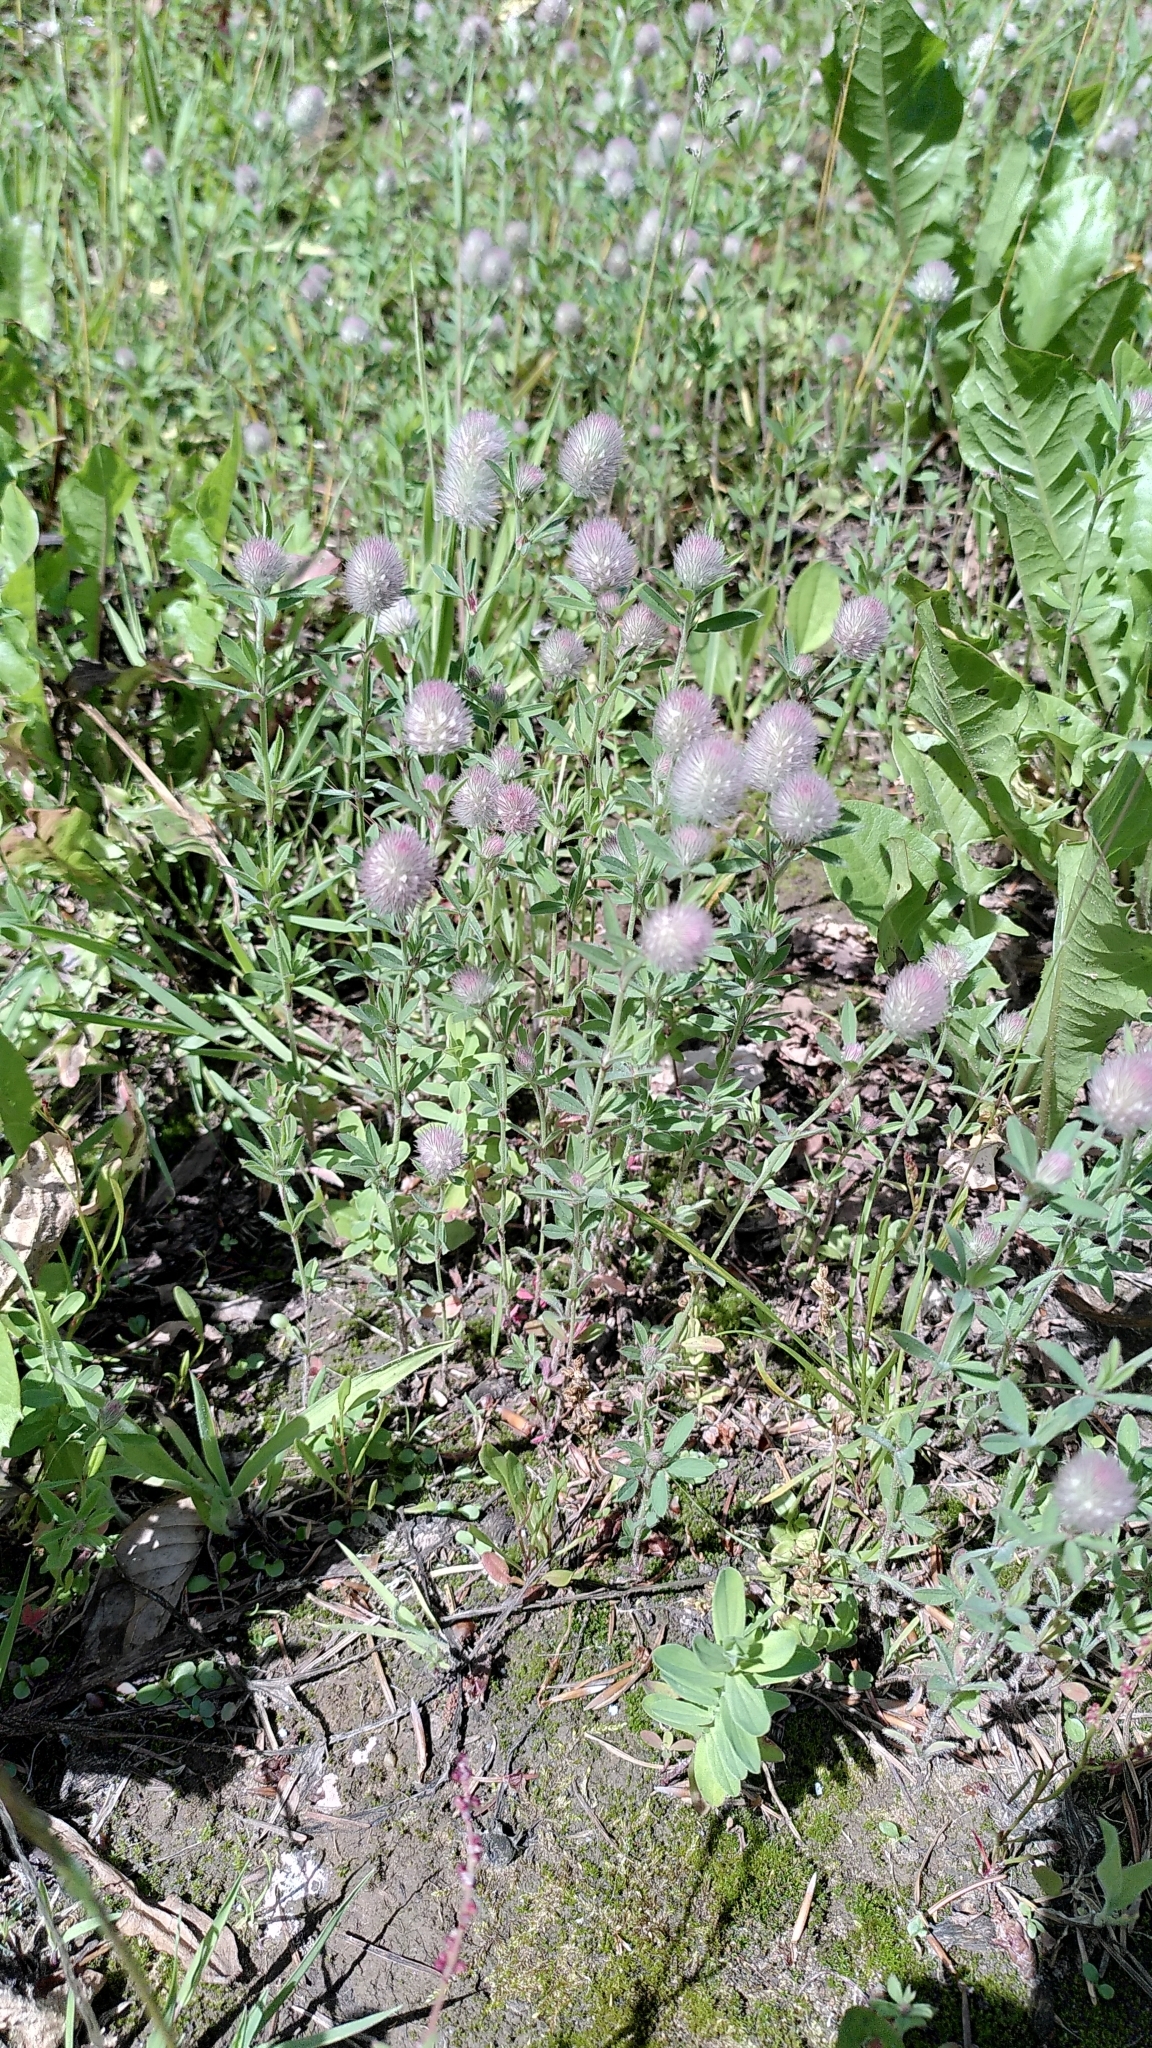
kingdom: Plantae
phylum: Tracheophyta
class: Magnoliopsida
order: Fabales
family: Fabaceae
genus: Trifolium
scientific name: Trifolium arvense
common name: Hare's-foot clover
